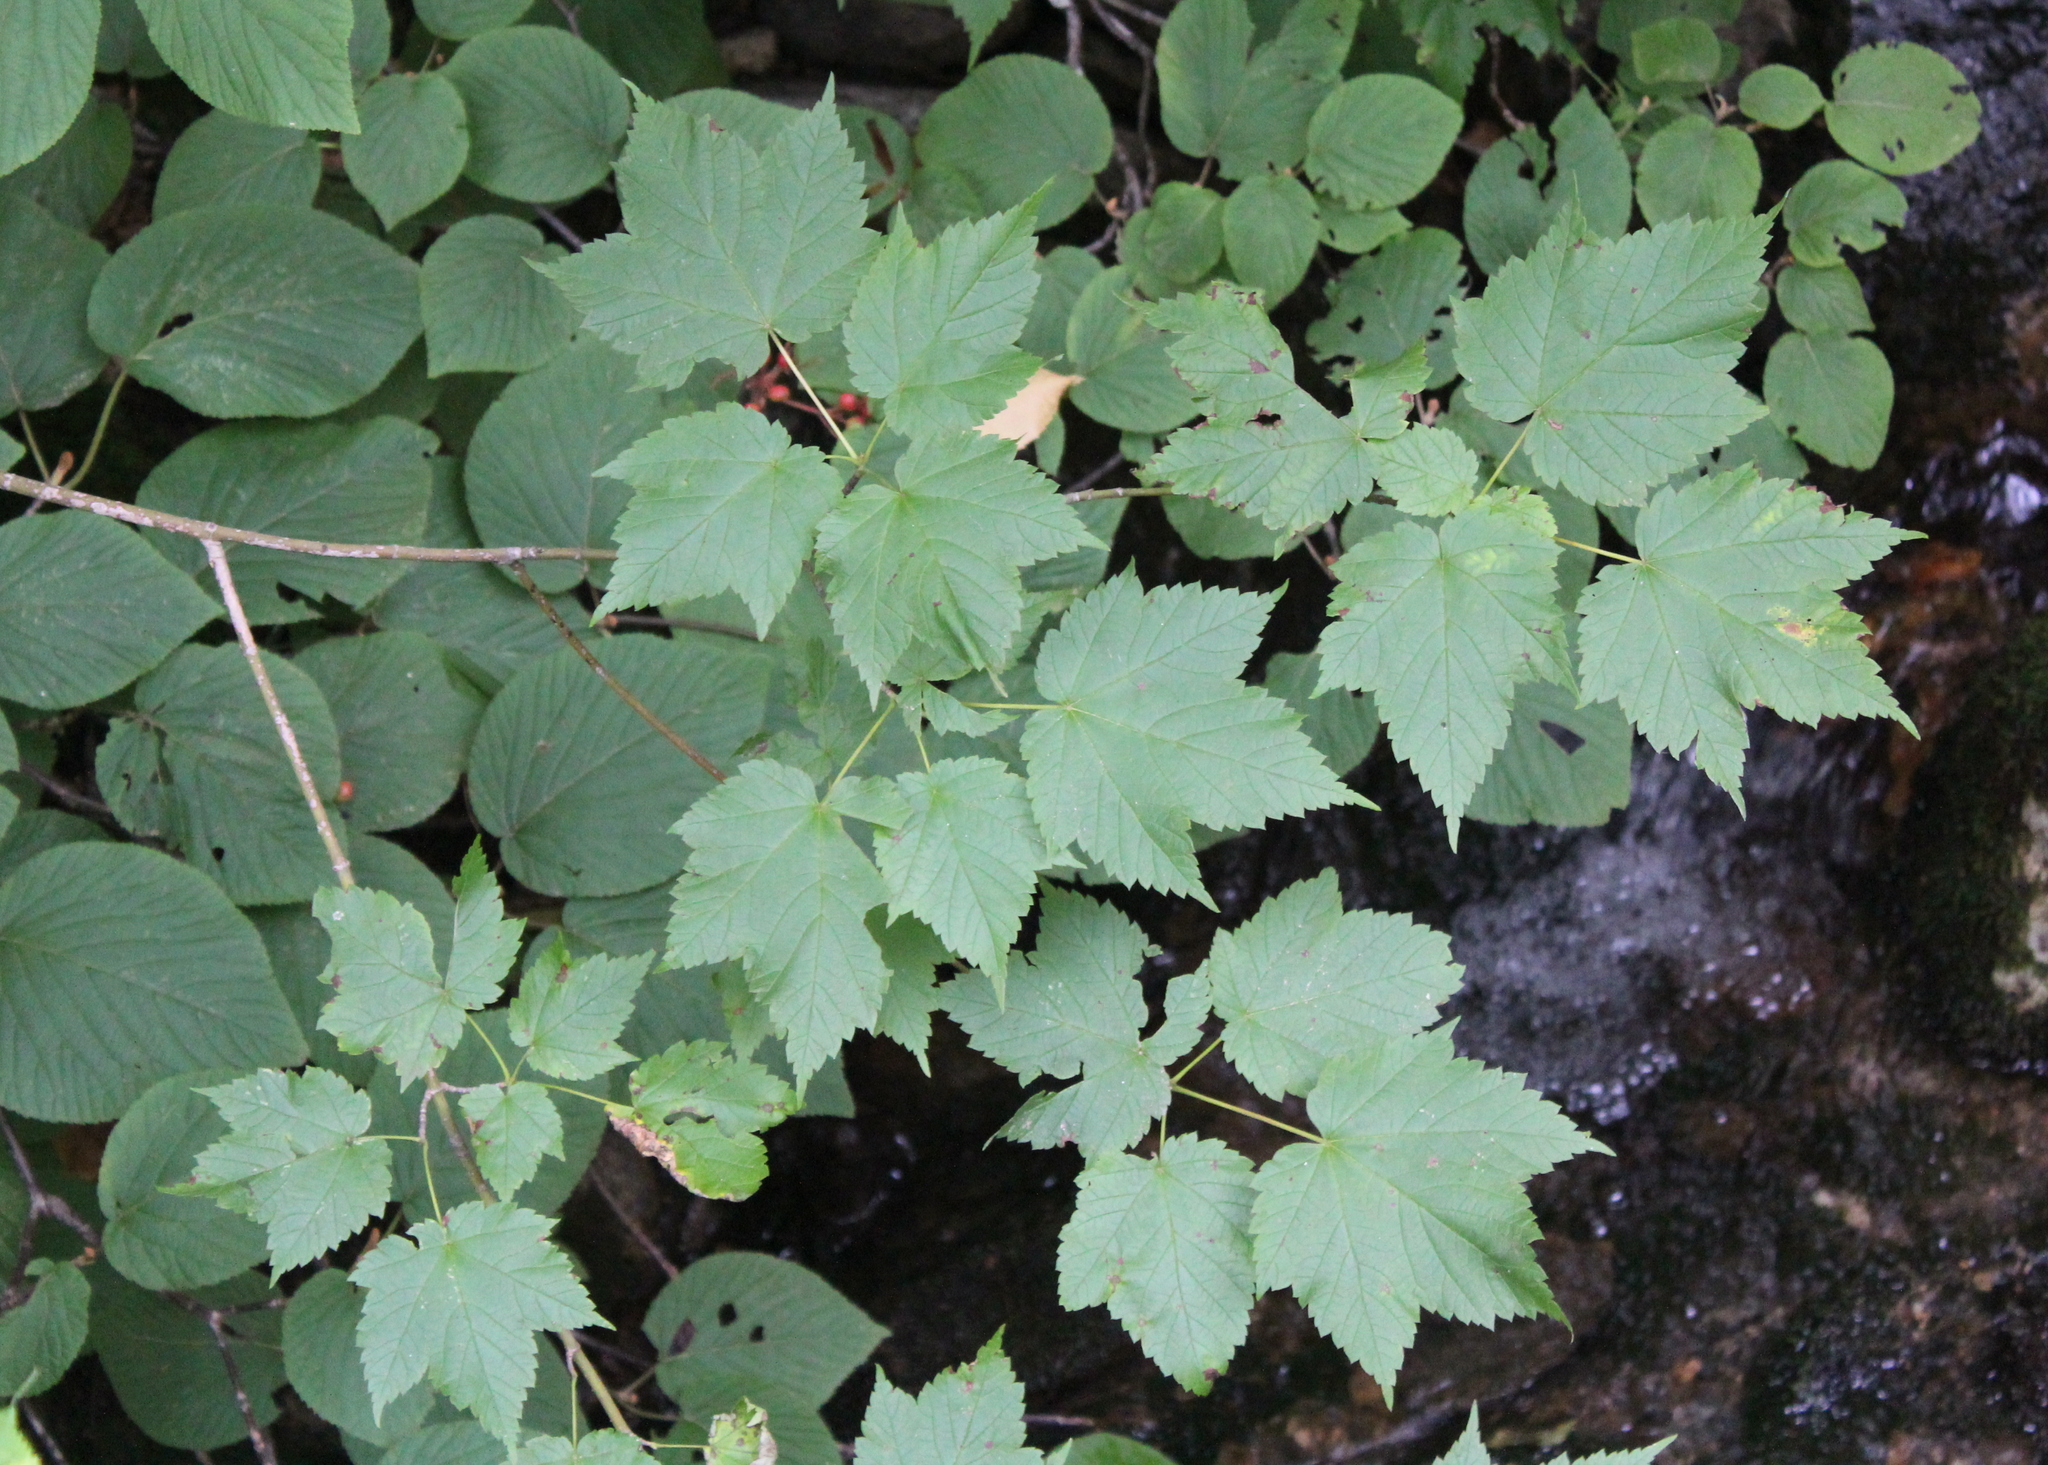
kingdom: Plantae
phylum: Tracheophyta
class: Magnoliopsida
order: Sapindales
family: Sapindaceae
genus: Acer
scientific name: Acer spicatum
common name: Mountain maple
